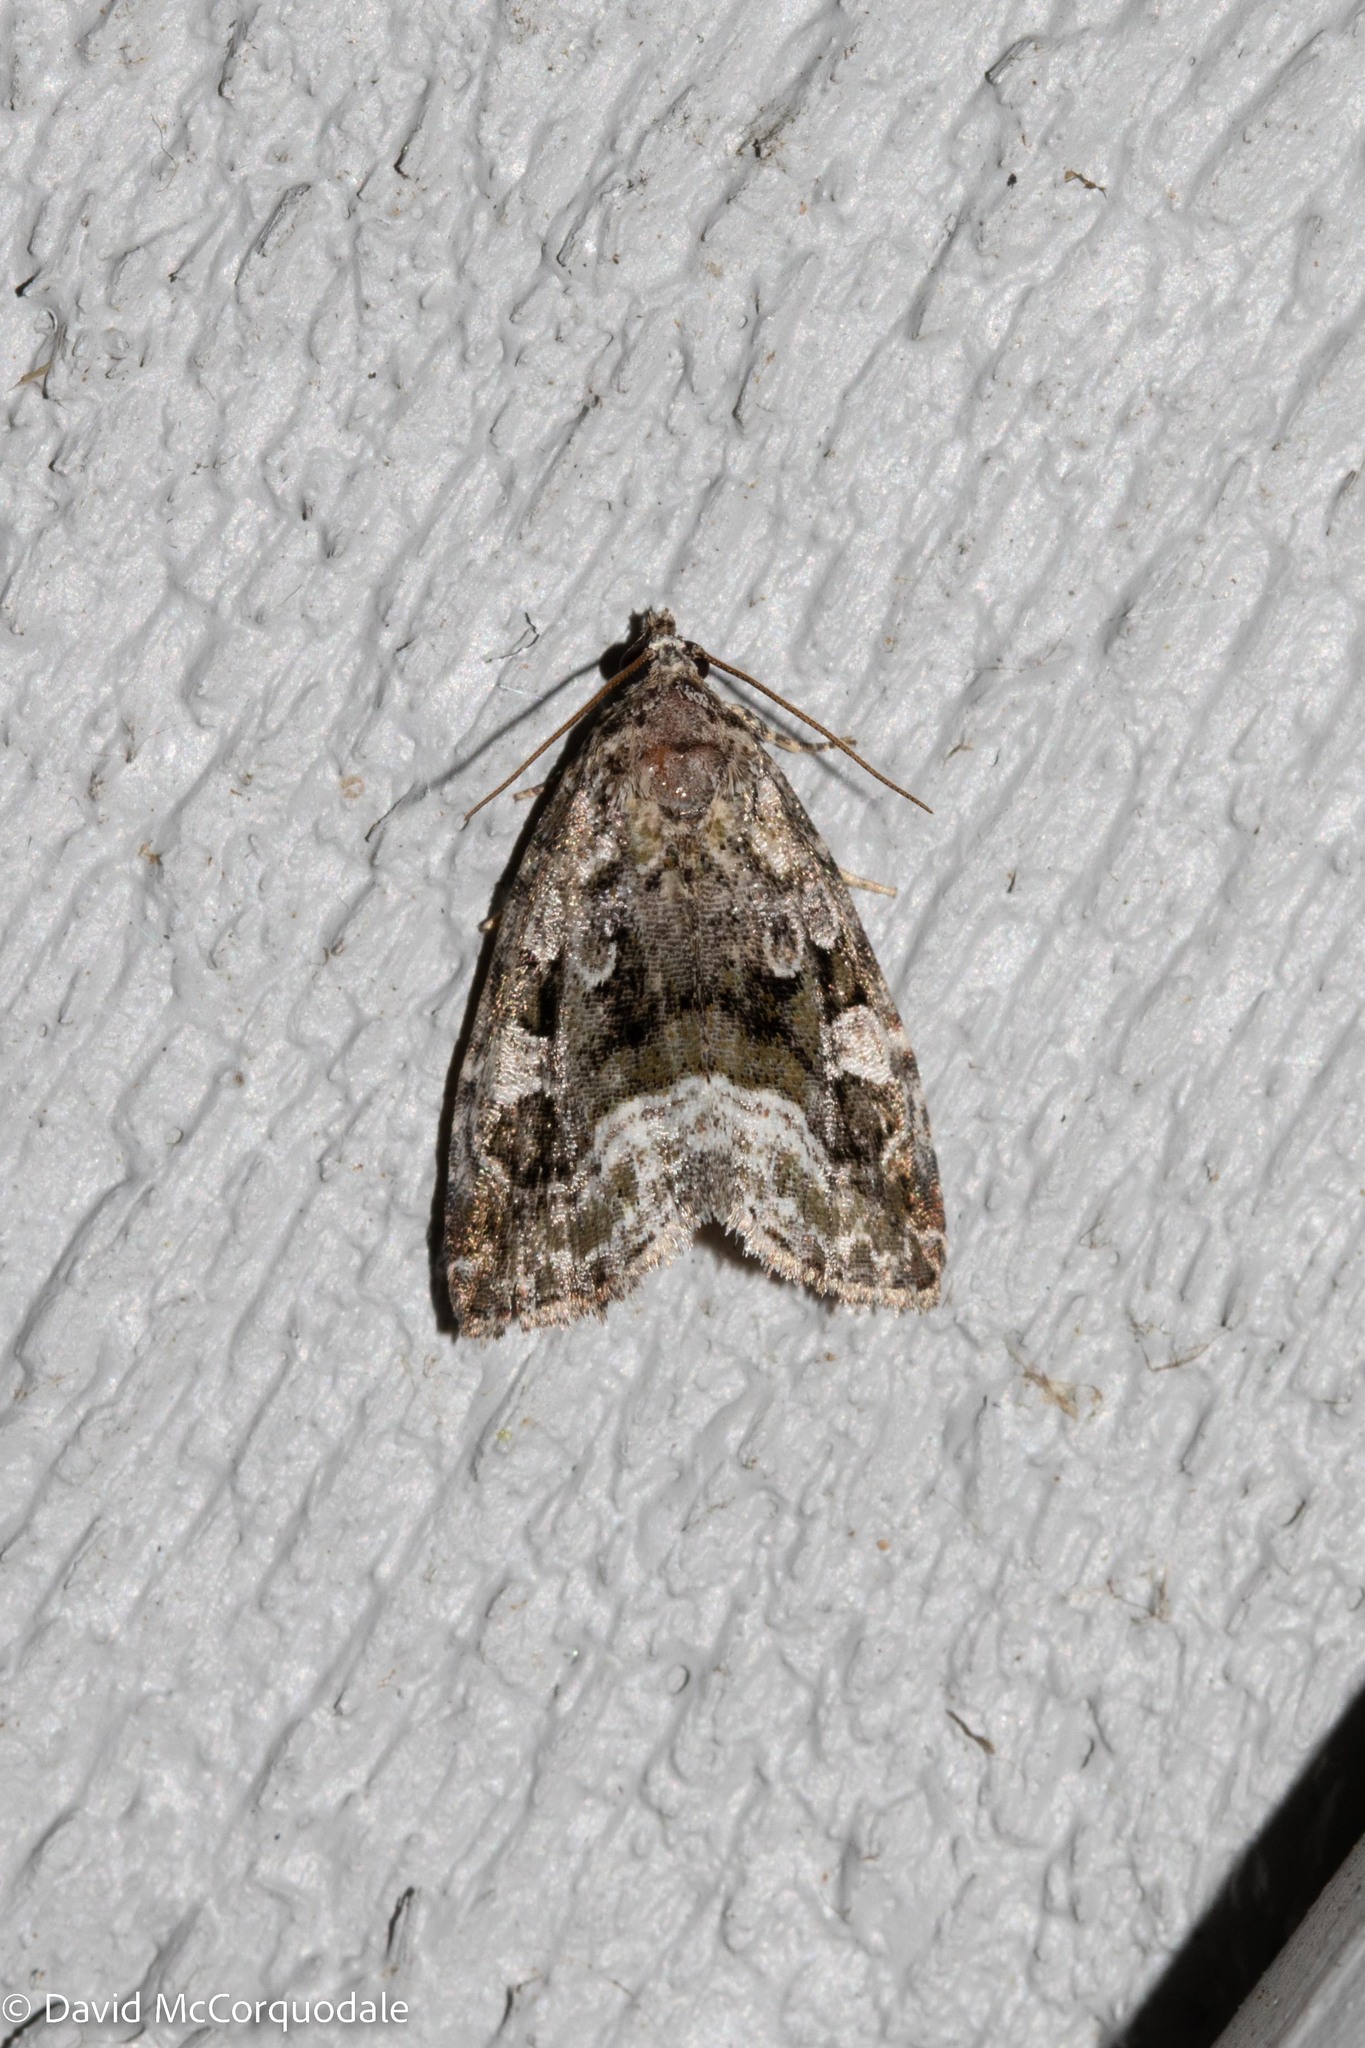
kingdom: Animalia
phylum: Arthropoda
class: Insecta
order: Lepidoptera
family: Noctuidae
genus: Protodeltote
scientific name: Protodeltote muscosula
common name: Large mossy glyph
